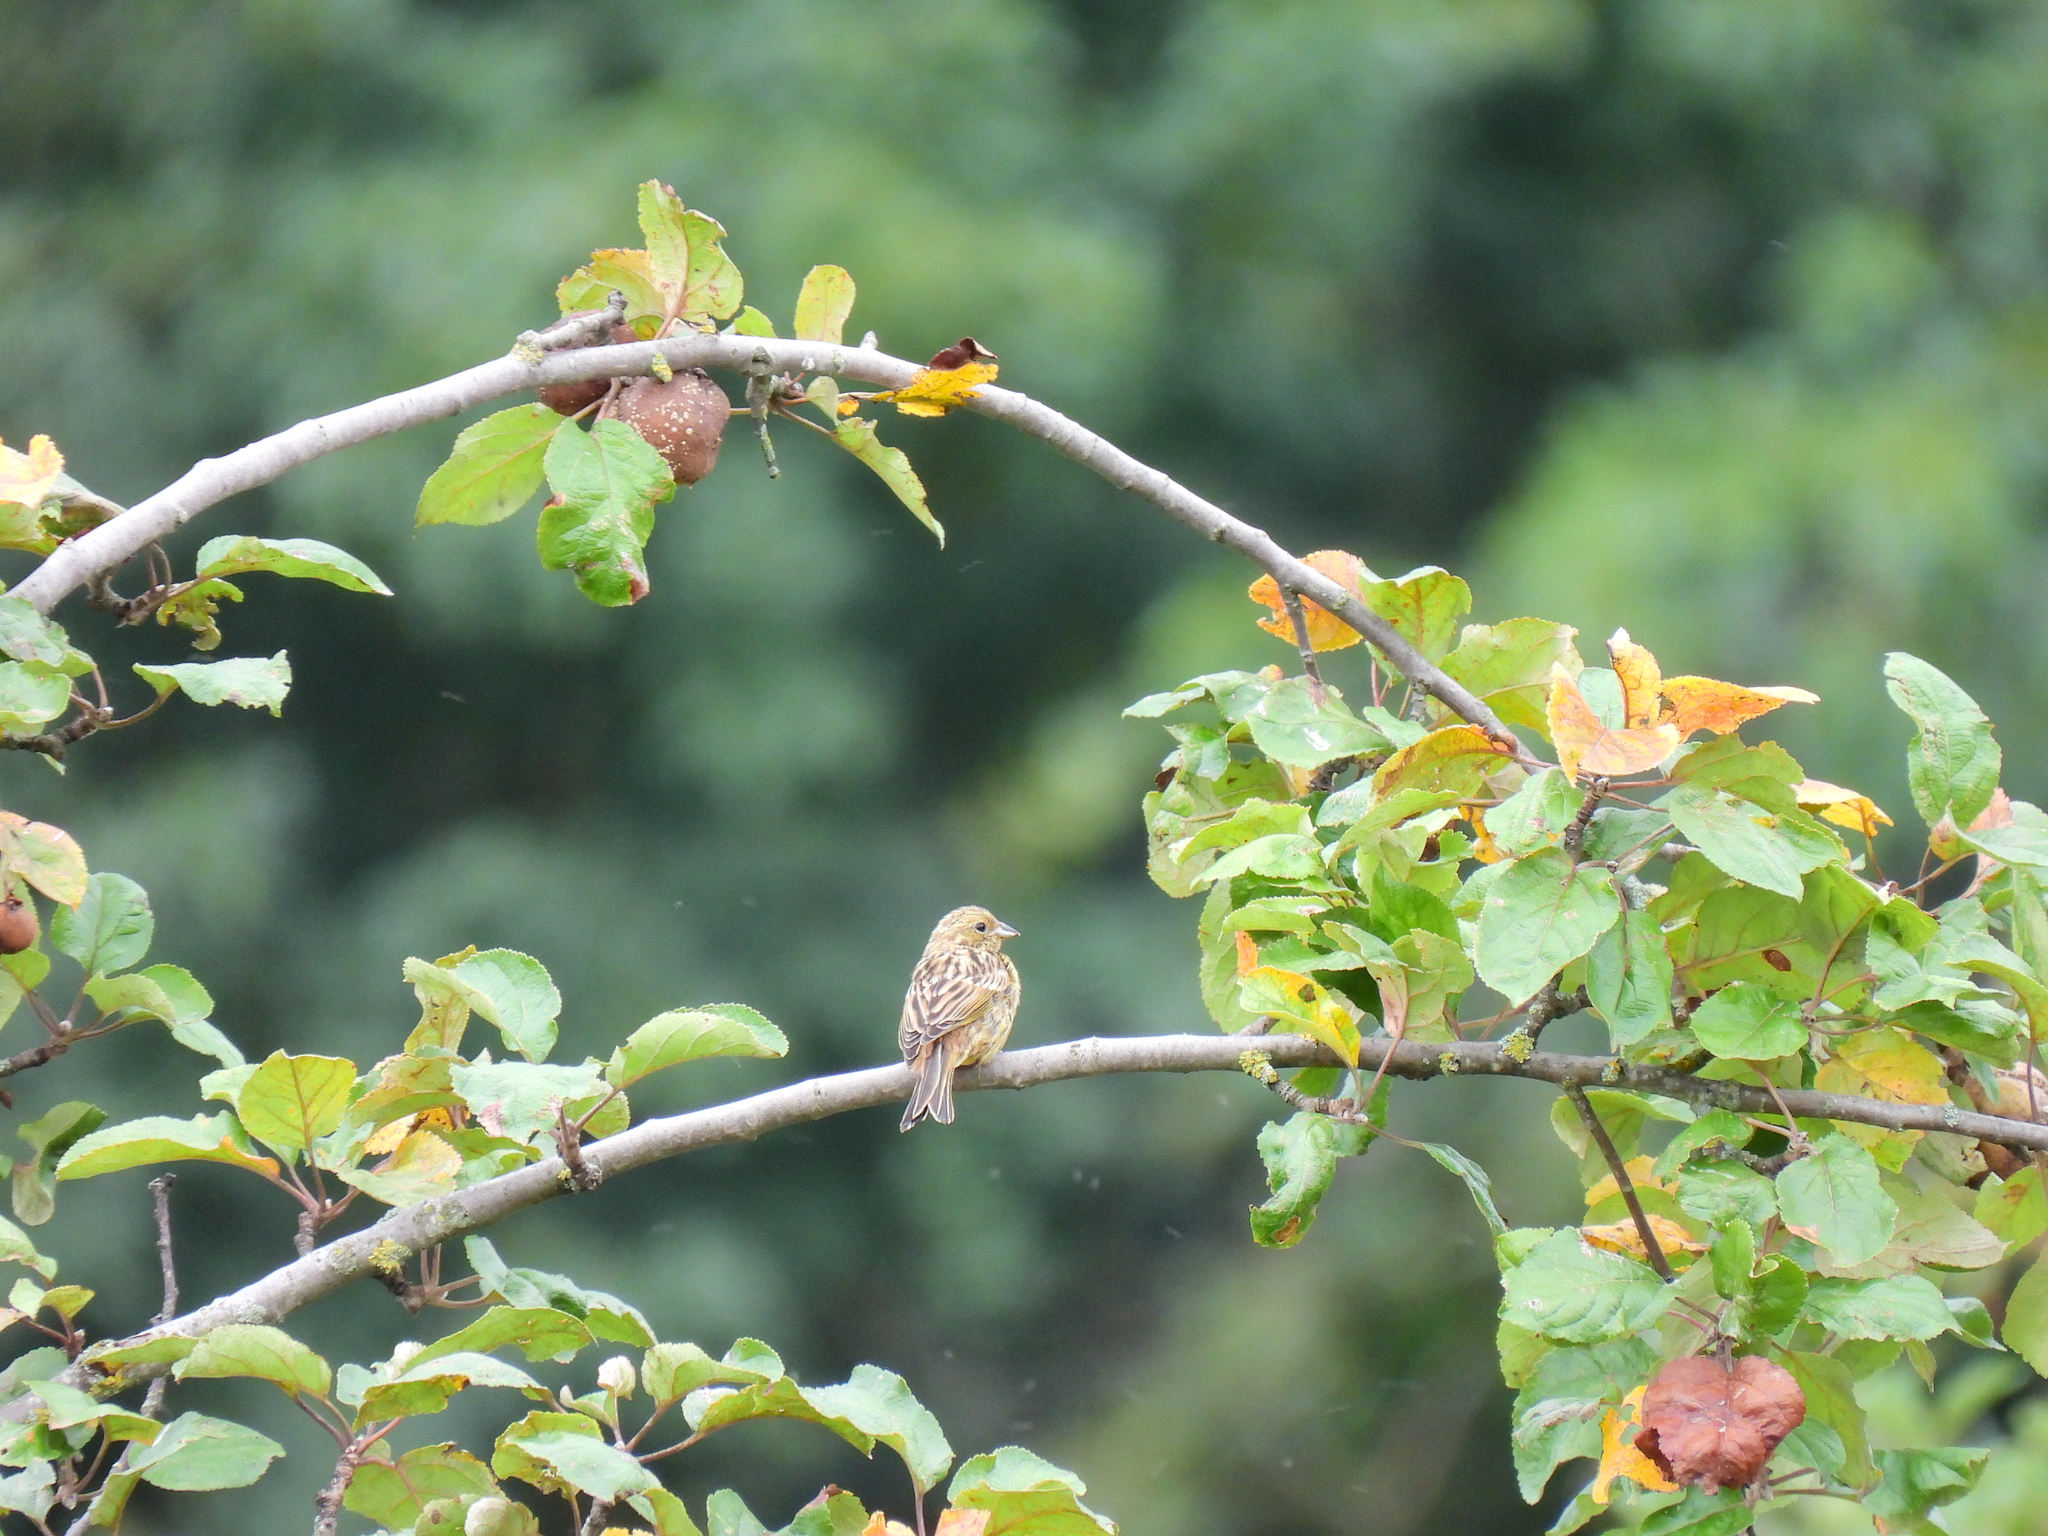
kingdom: Animalia
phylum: Chordata
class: Aves
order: Passeriformes
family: Emberizidae
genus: Emberiza
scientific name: Emberiza citrinella
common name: Yellowhammer
